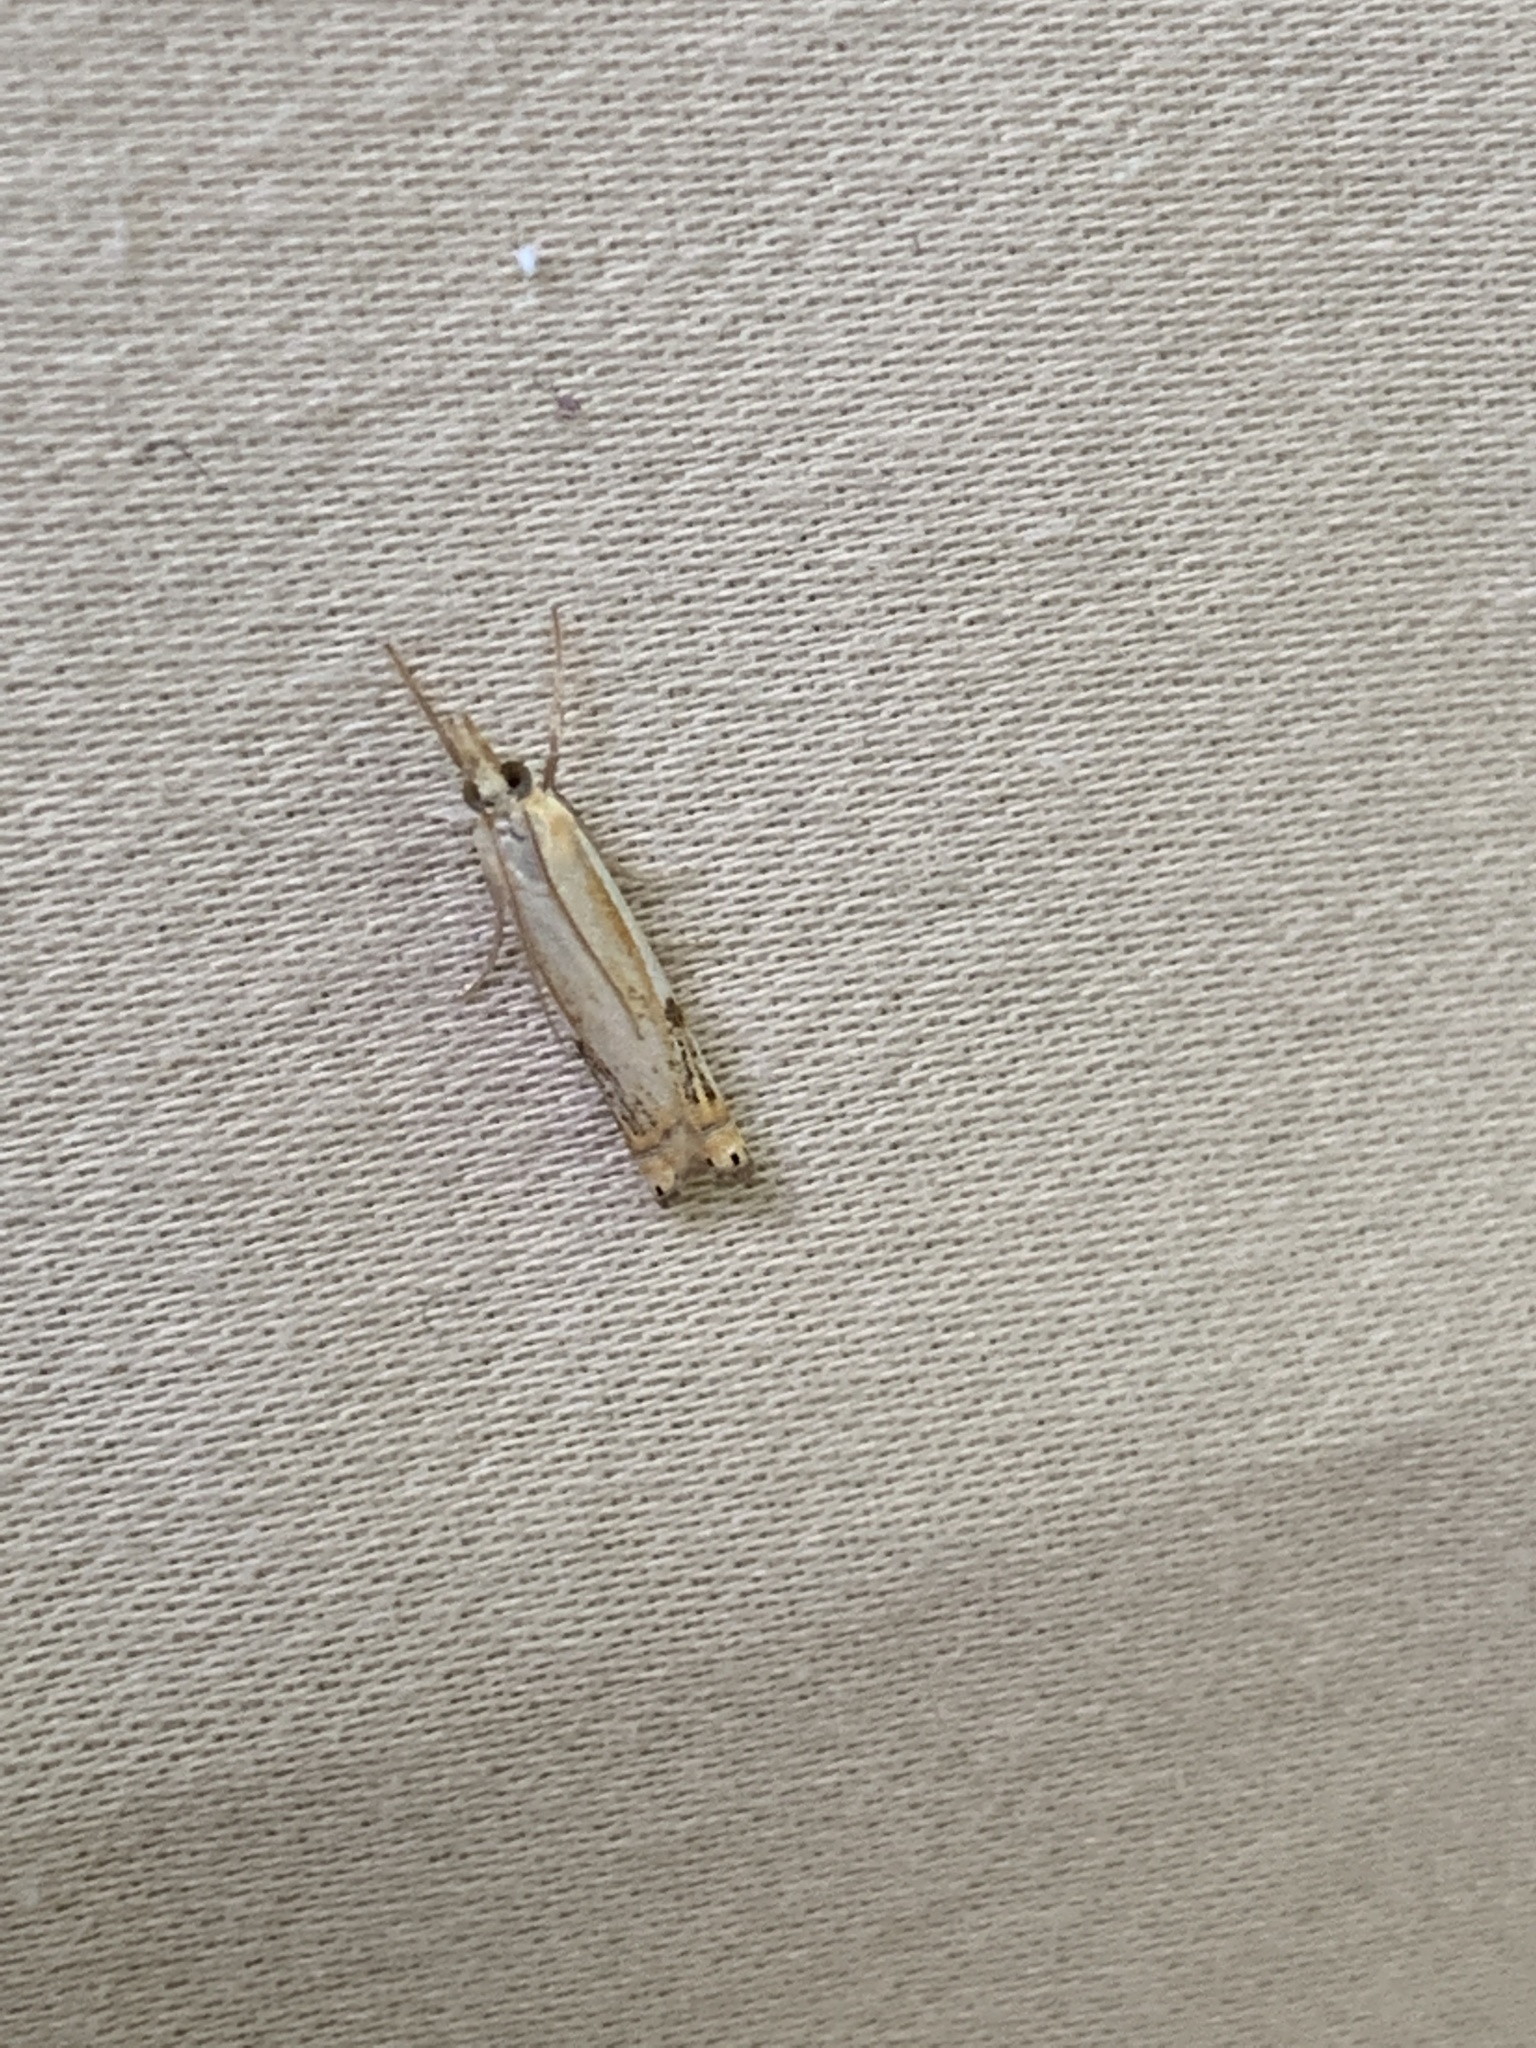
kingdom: Animalia
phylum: Arthropoda
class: Insecta
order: Lepidoptera
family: Crambidae
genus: Crambus
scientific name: Crambus agitatellus
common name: Double-banded grass-veneer
